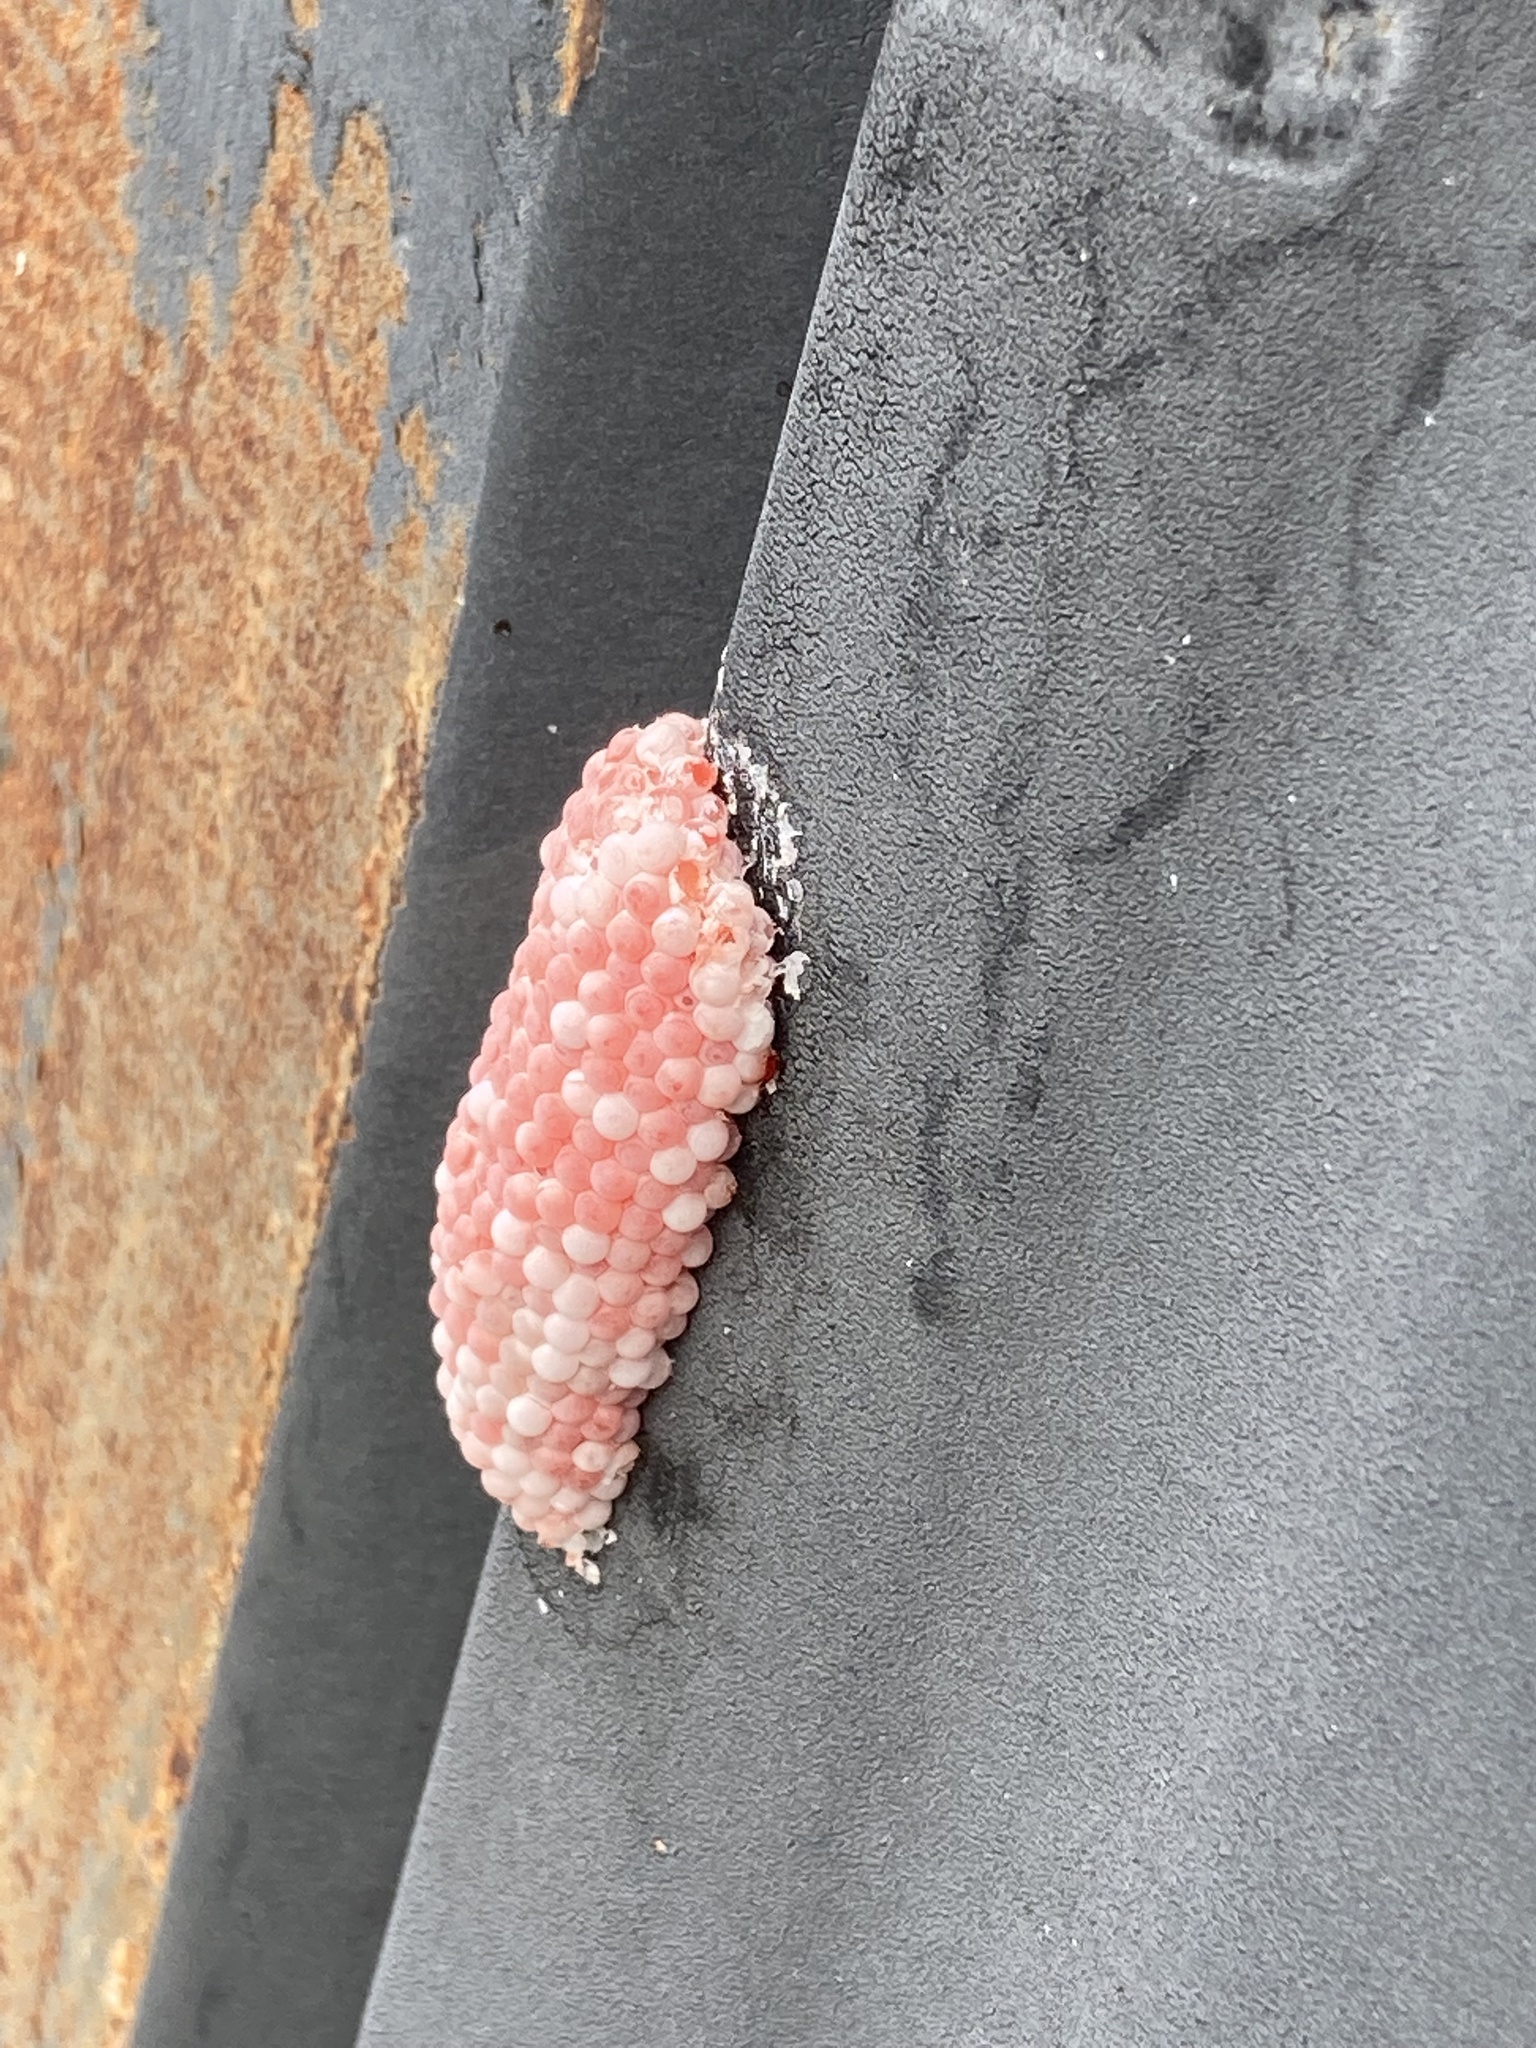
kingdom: Animalia
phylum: Mollusca
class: Gastropoda
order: Architaenioglossa
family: Ampullariidae
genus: Pomacea
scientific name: Pomacea maculata
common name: Giant applesnail
